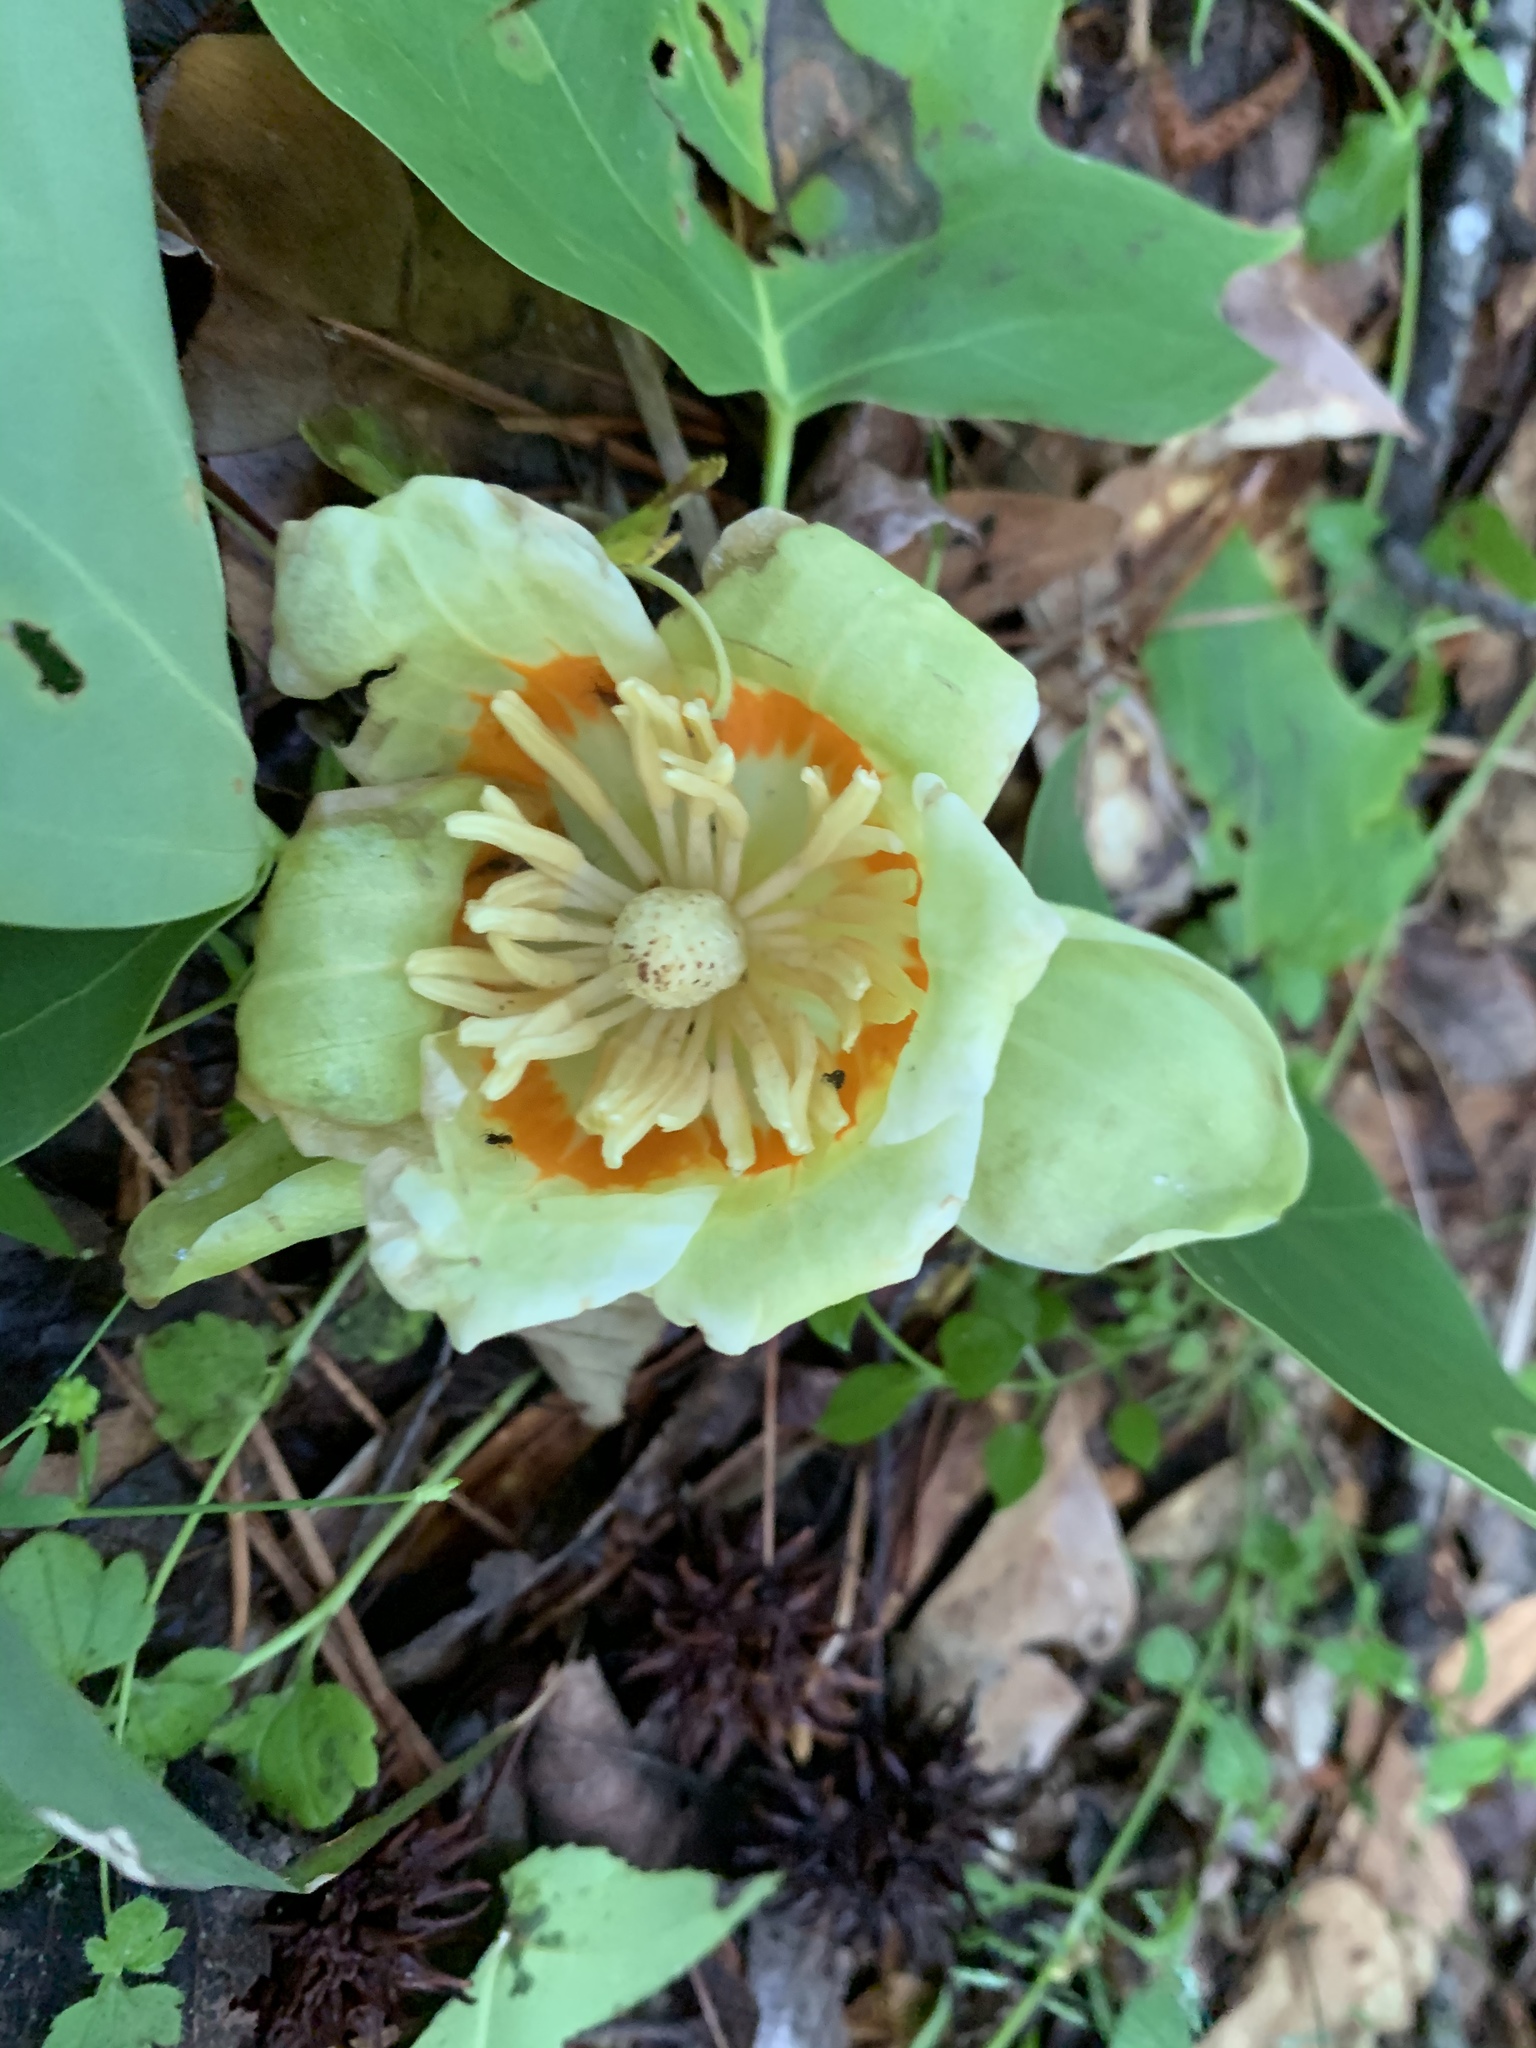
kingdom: Plantae
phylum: Tracheophyta
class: Magnoliopsida
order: Magnoliales
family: Magnoliaceae
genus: Liriodendron
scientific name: Liriodendron tulipifera
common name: Tulip tree
